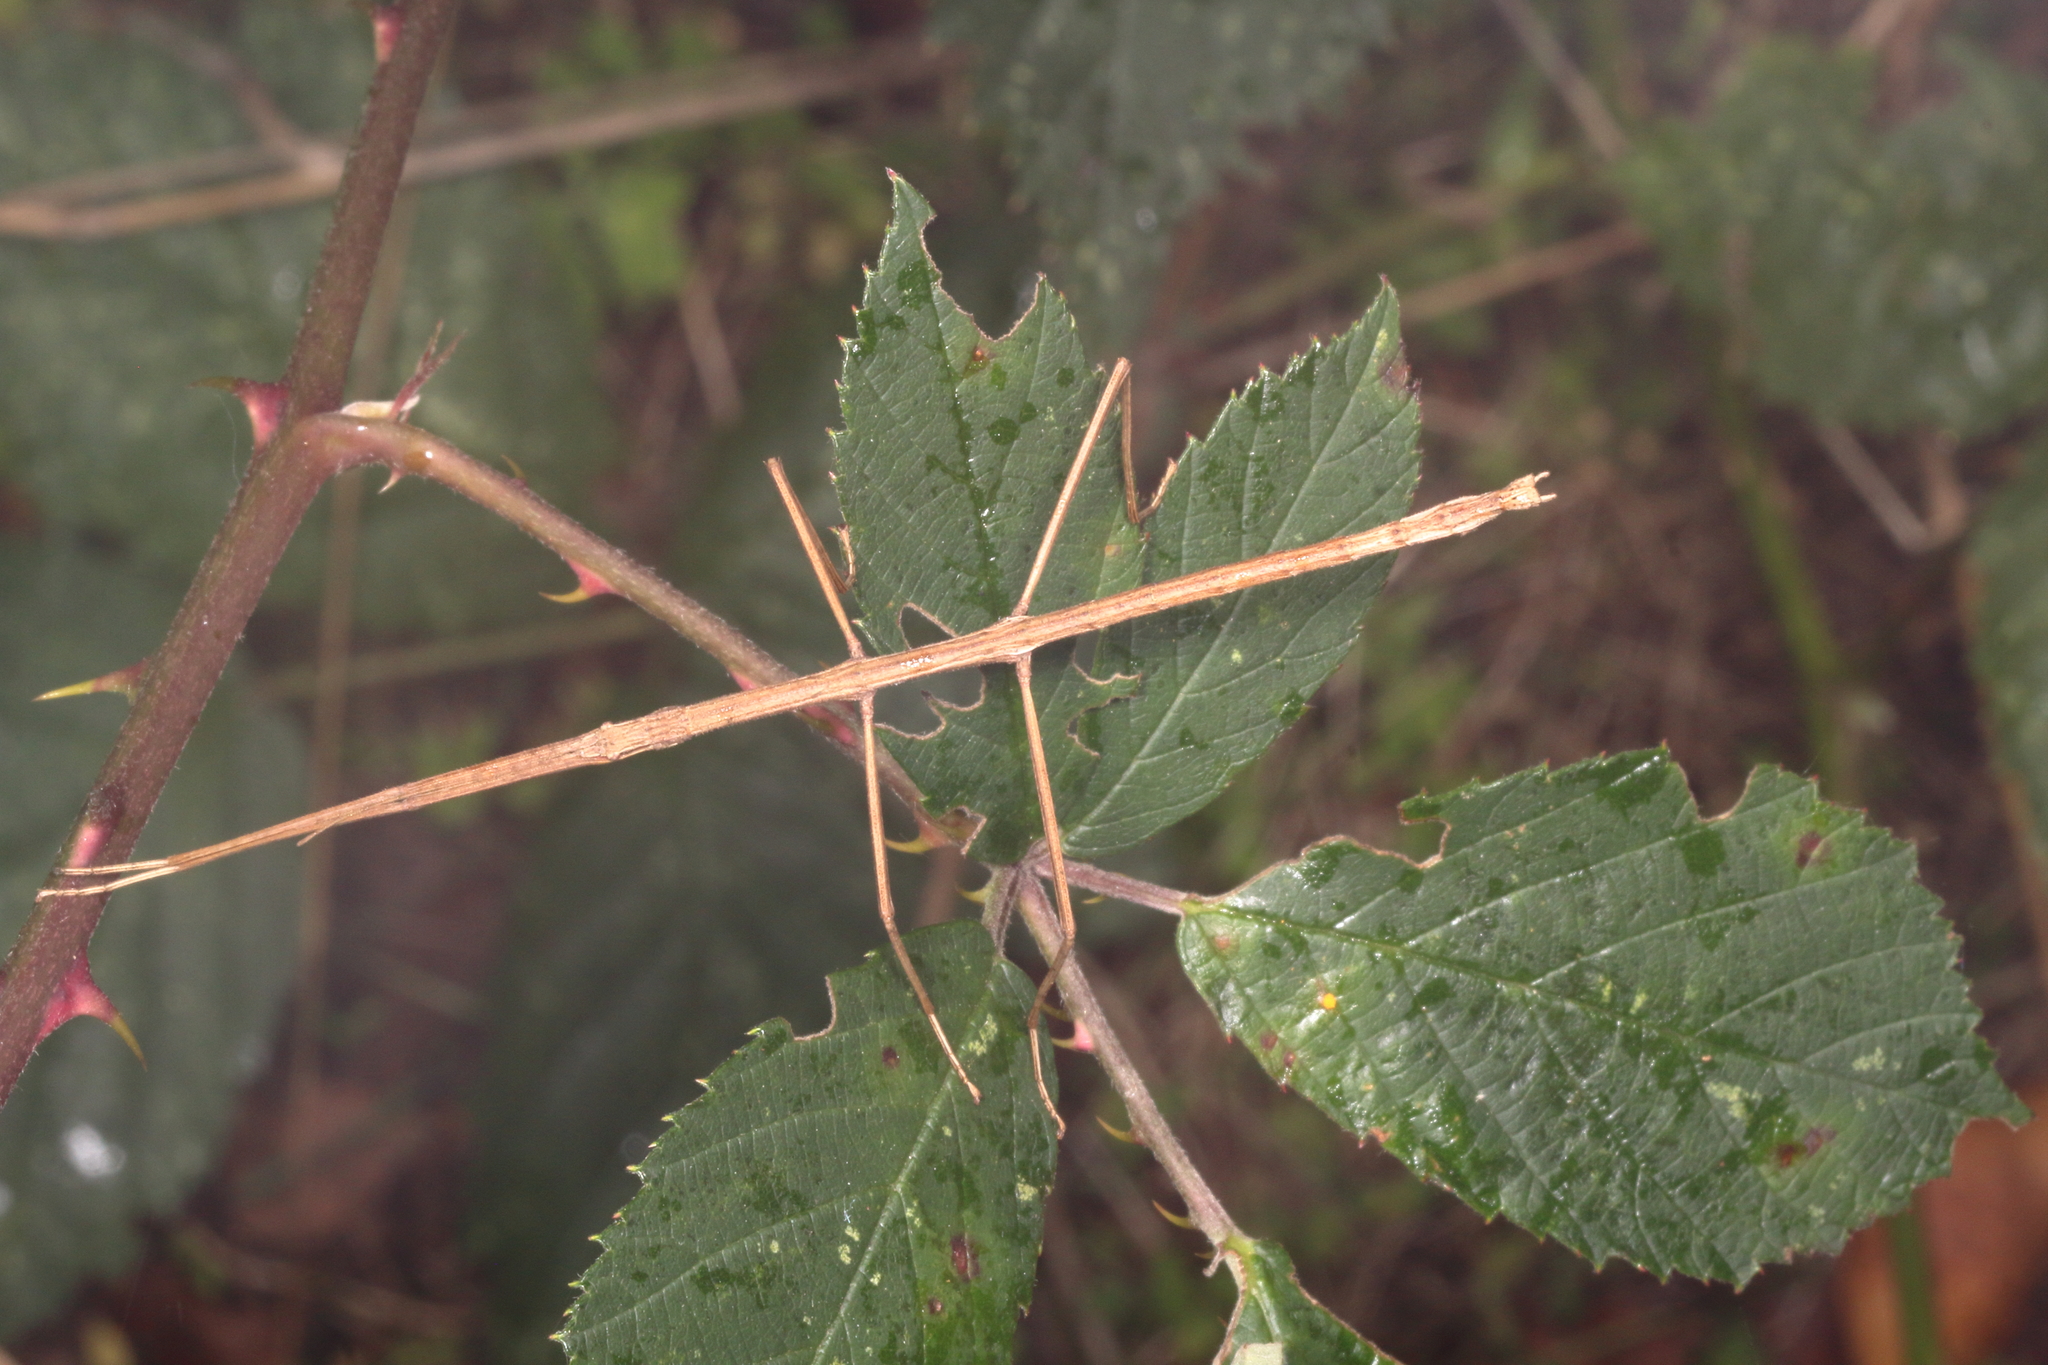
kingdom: Animalia
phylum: Arthropoda
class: Insecta
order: Phasmida
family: Phasmatidae
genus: Tectarchus
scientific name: Tectarchus salebrosus
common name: Lesser rough-skinned stick insect
